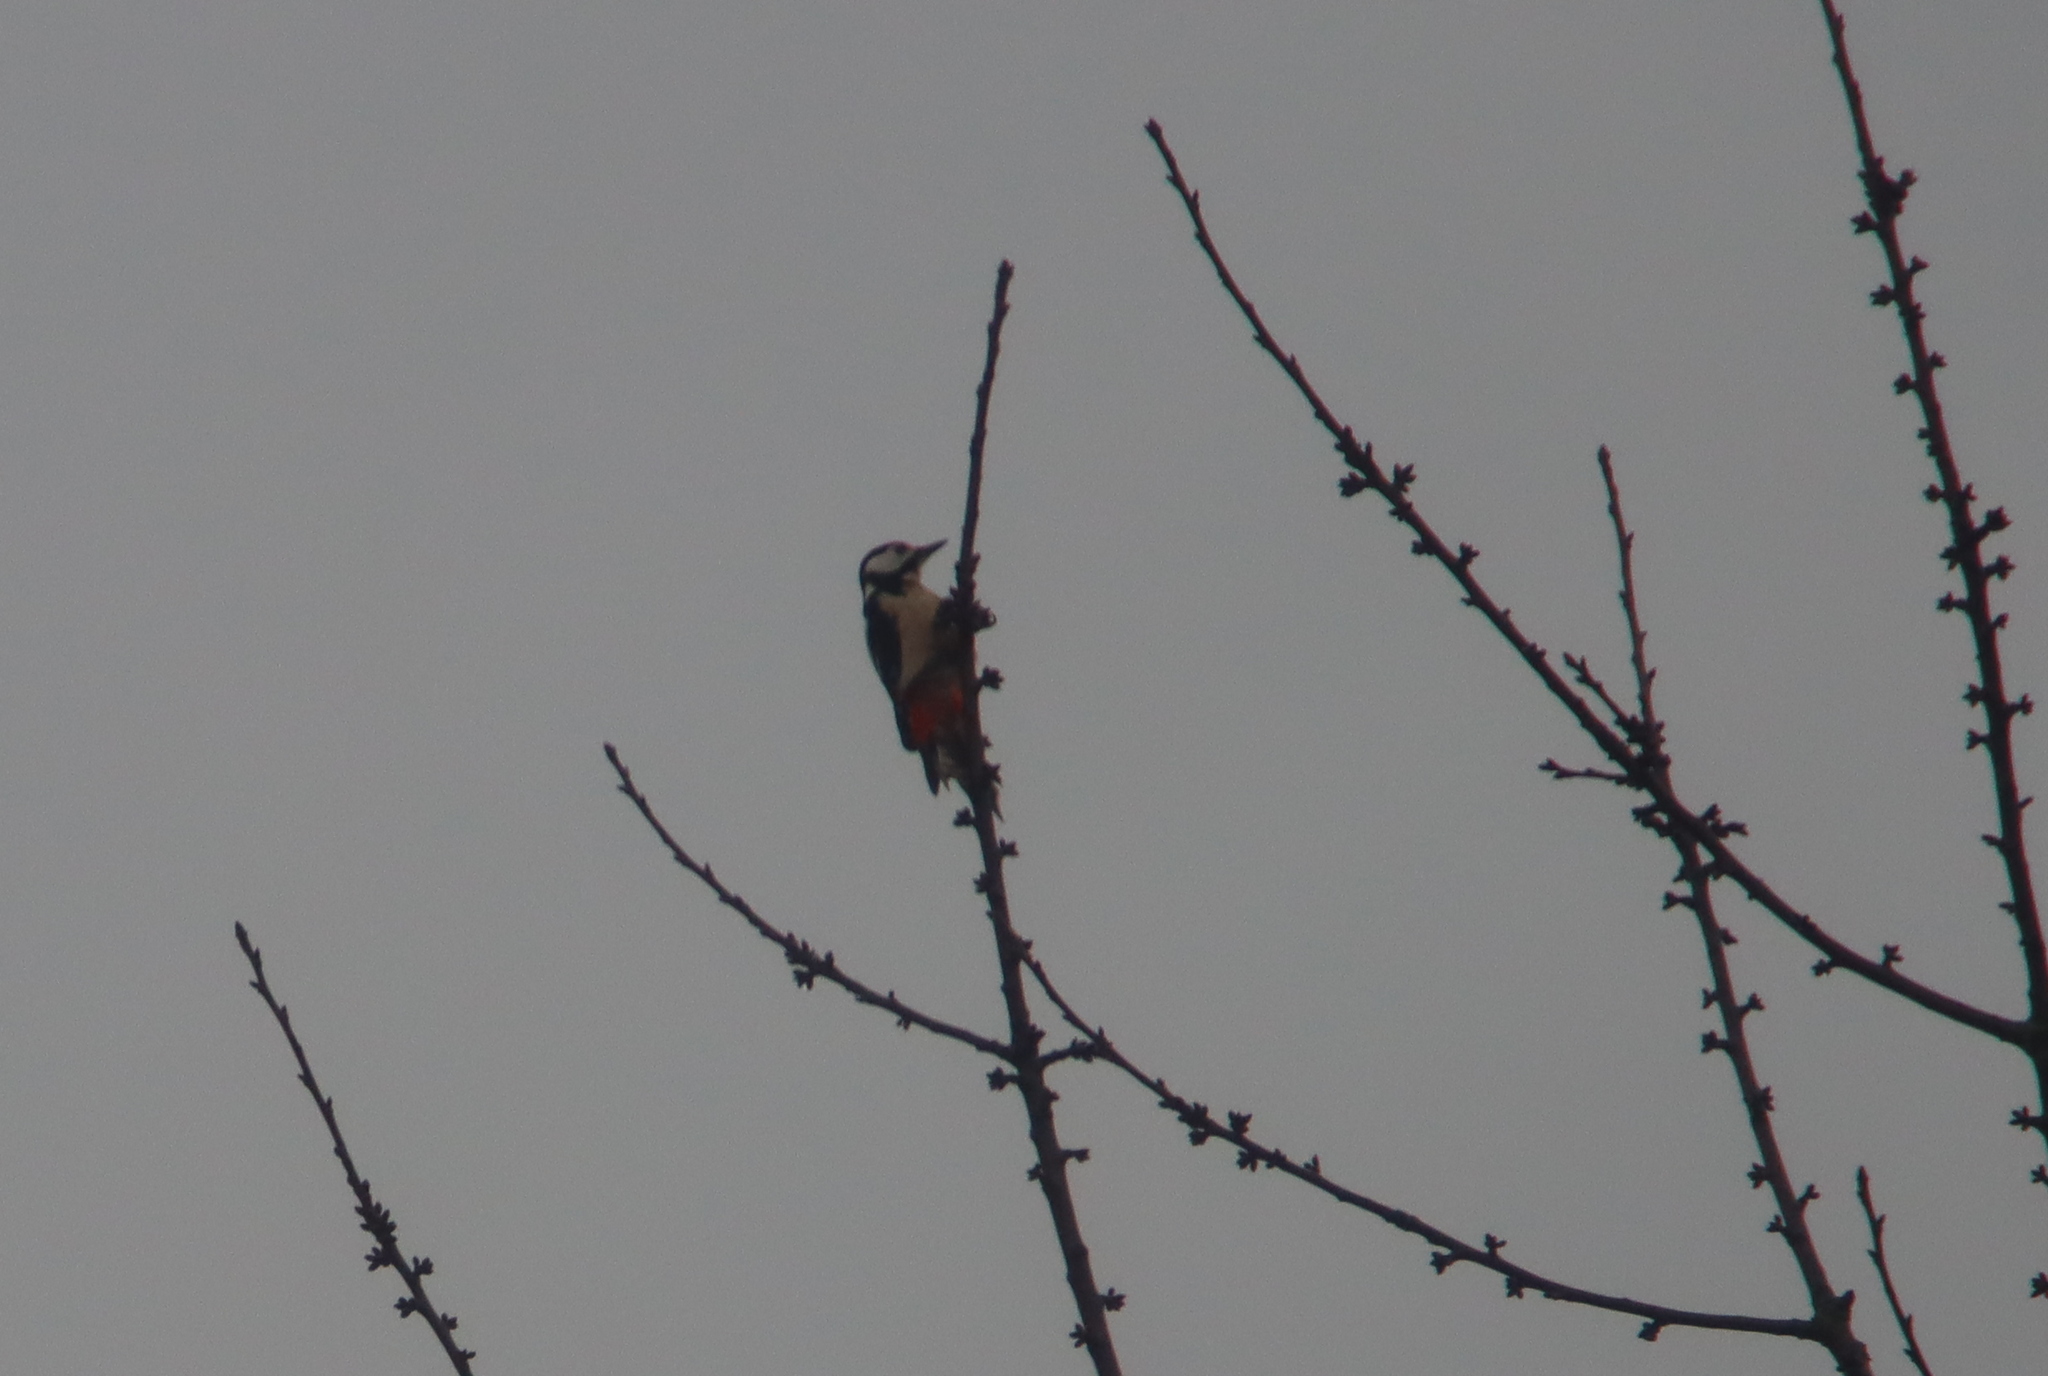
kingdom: Animalia
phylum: Chordata
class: Aves
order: Piciformes
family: Picidae
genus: Dendrocopos
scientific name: Dendrocopos major
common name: Great spotted woodpecker
